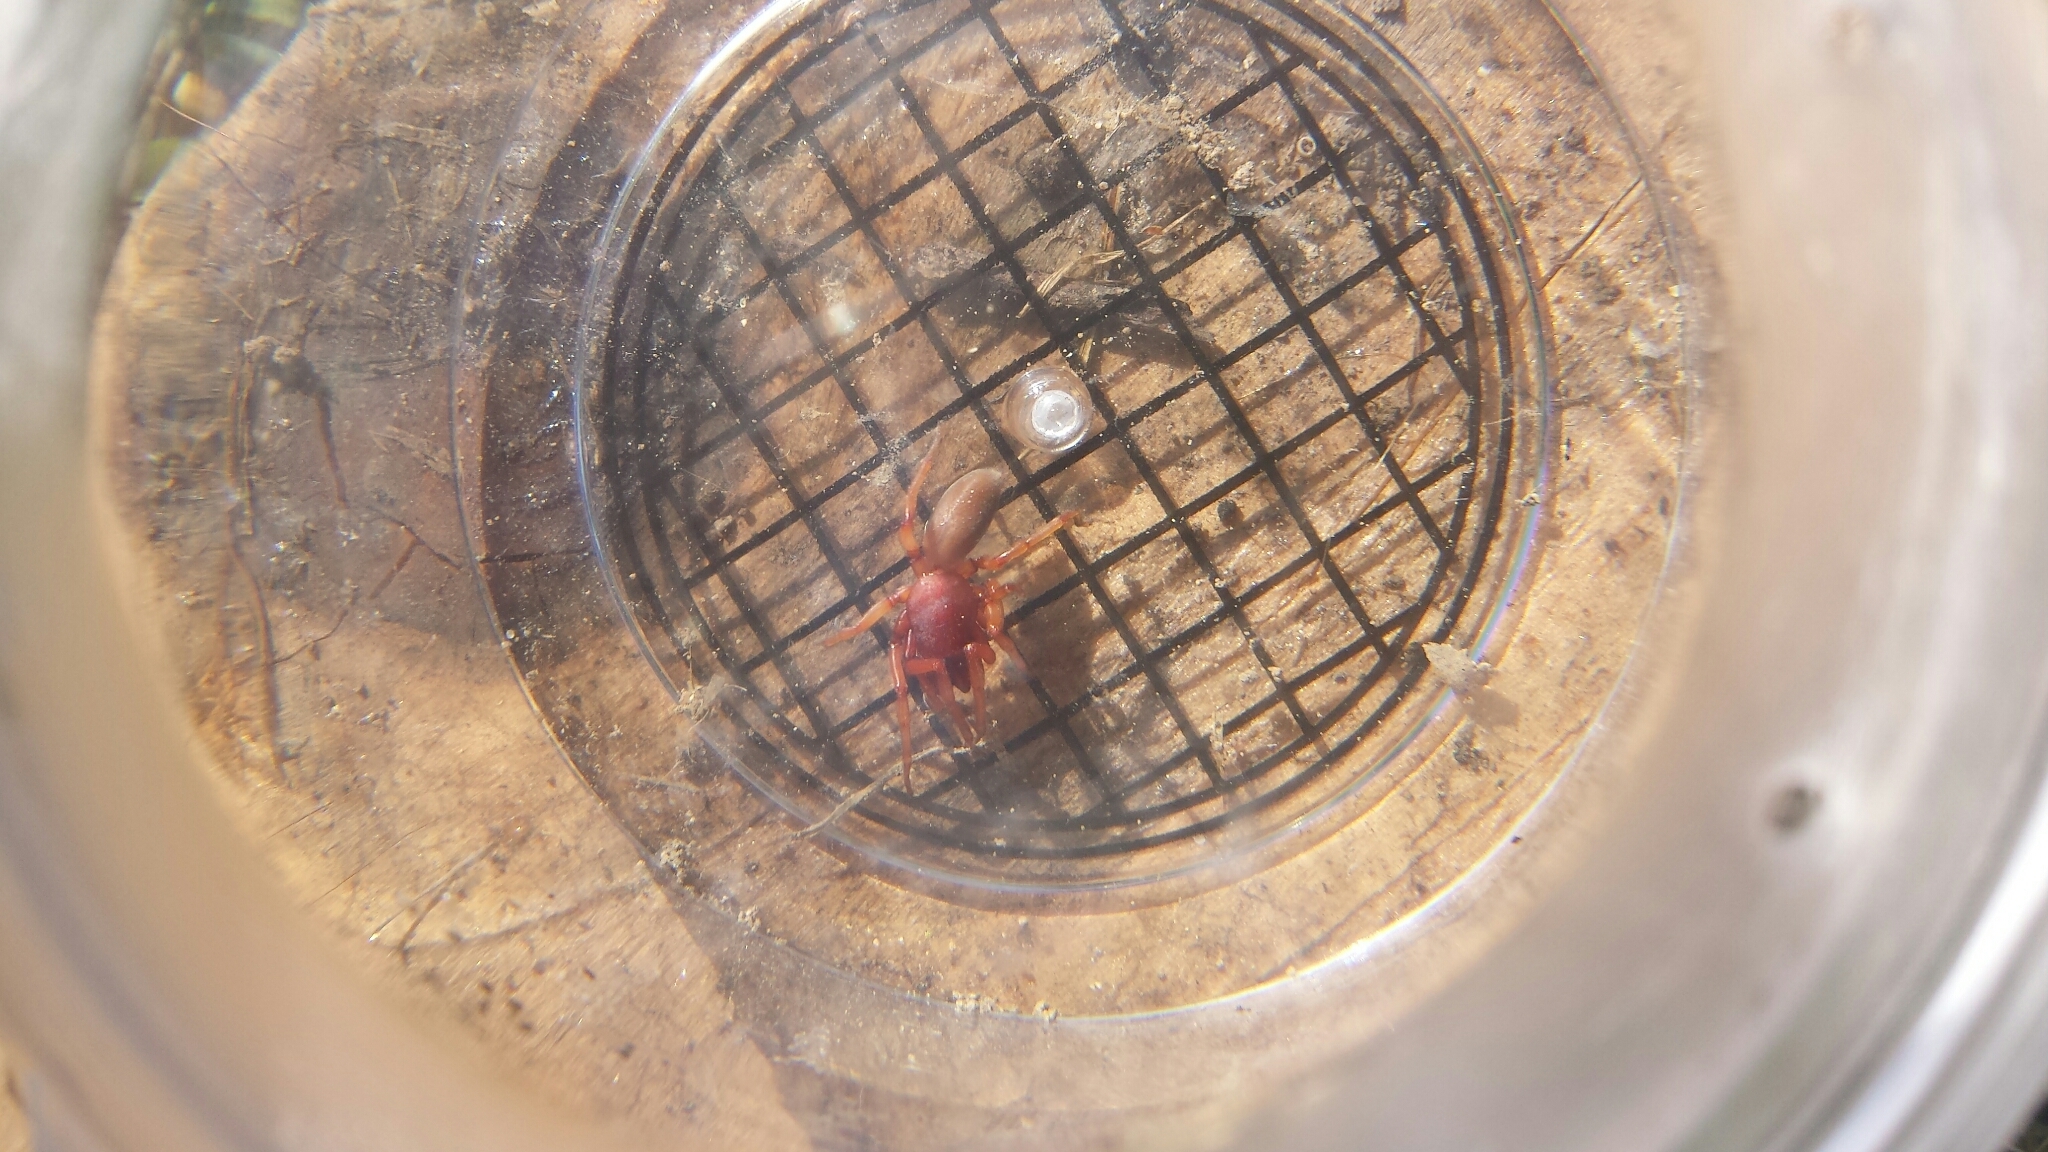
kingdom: Animalia
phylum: Arthropoda
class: Arachnida
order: Araneae
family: Dysderidae
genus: Dysdera
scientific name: Dysdera crocata
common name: Woodlouse spider
